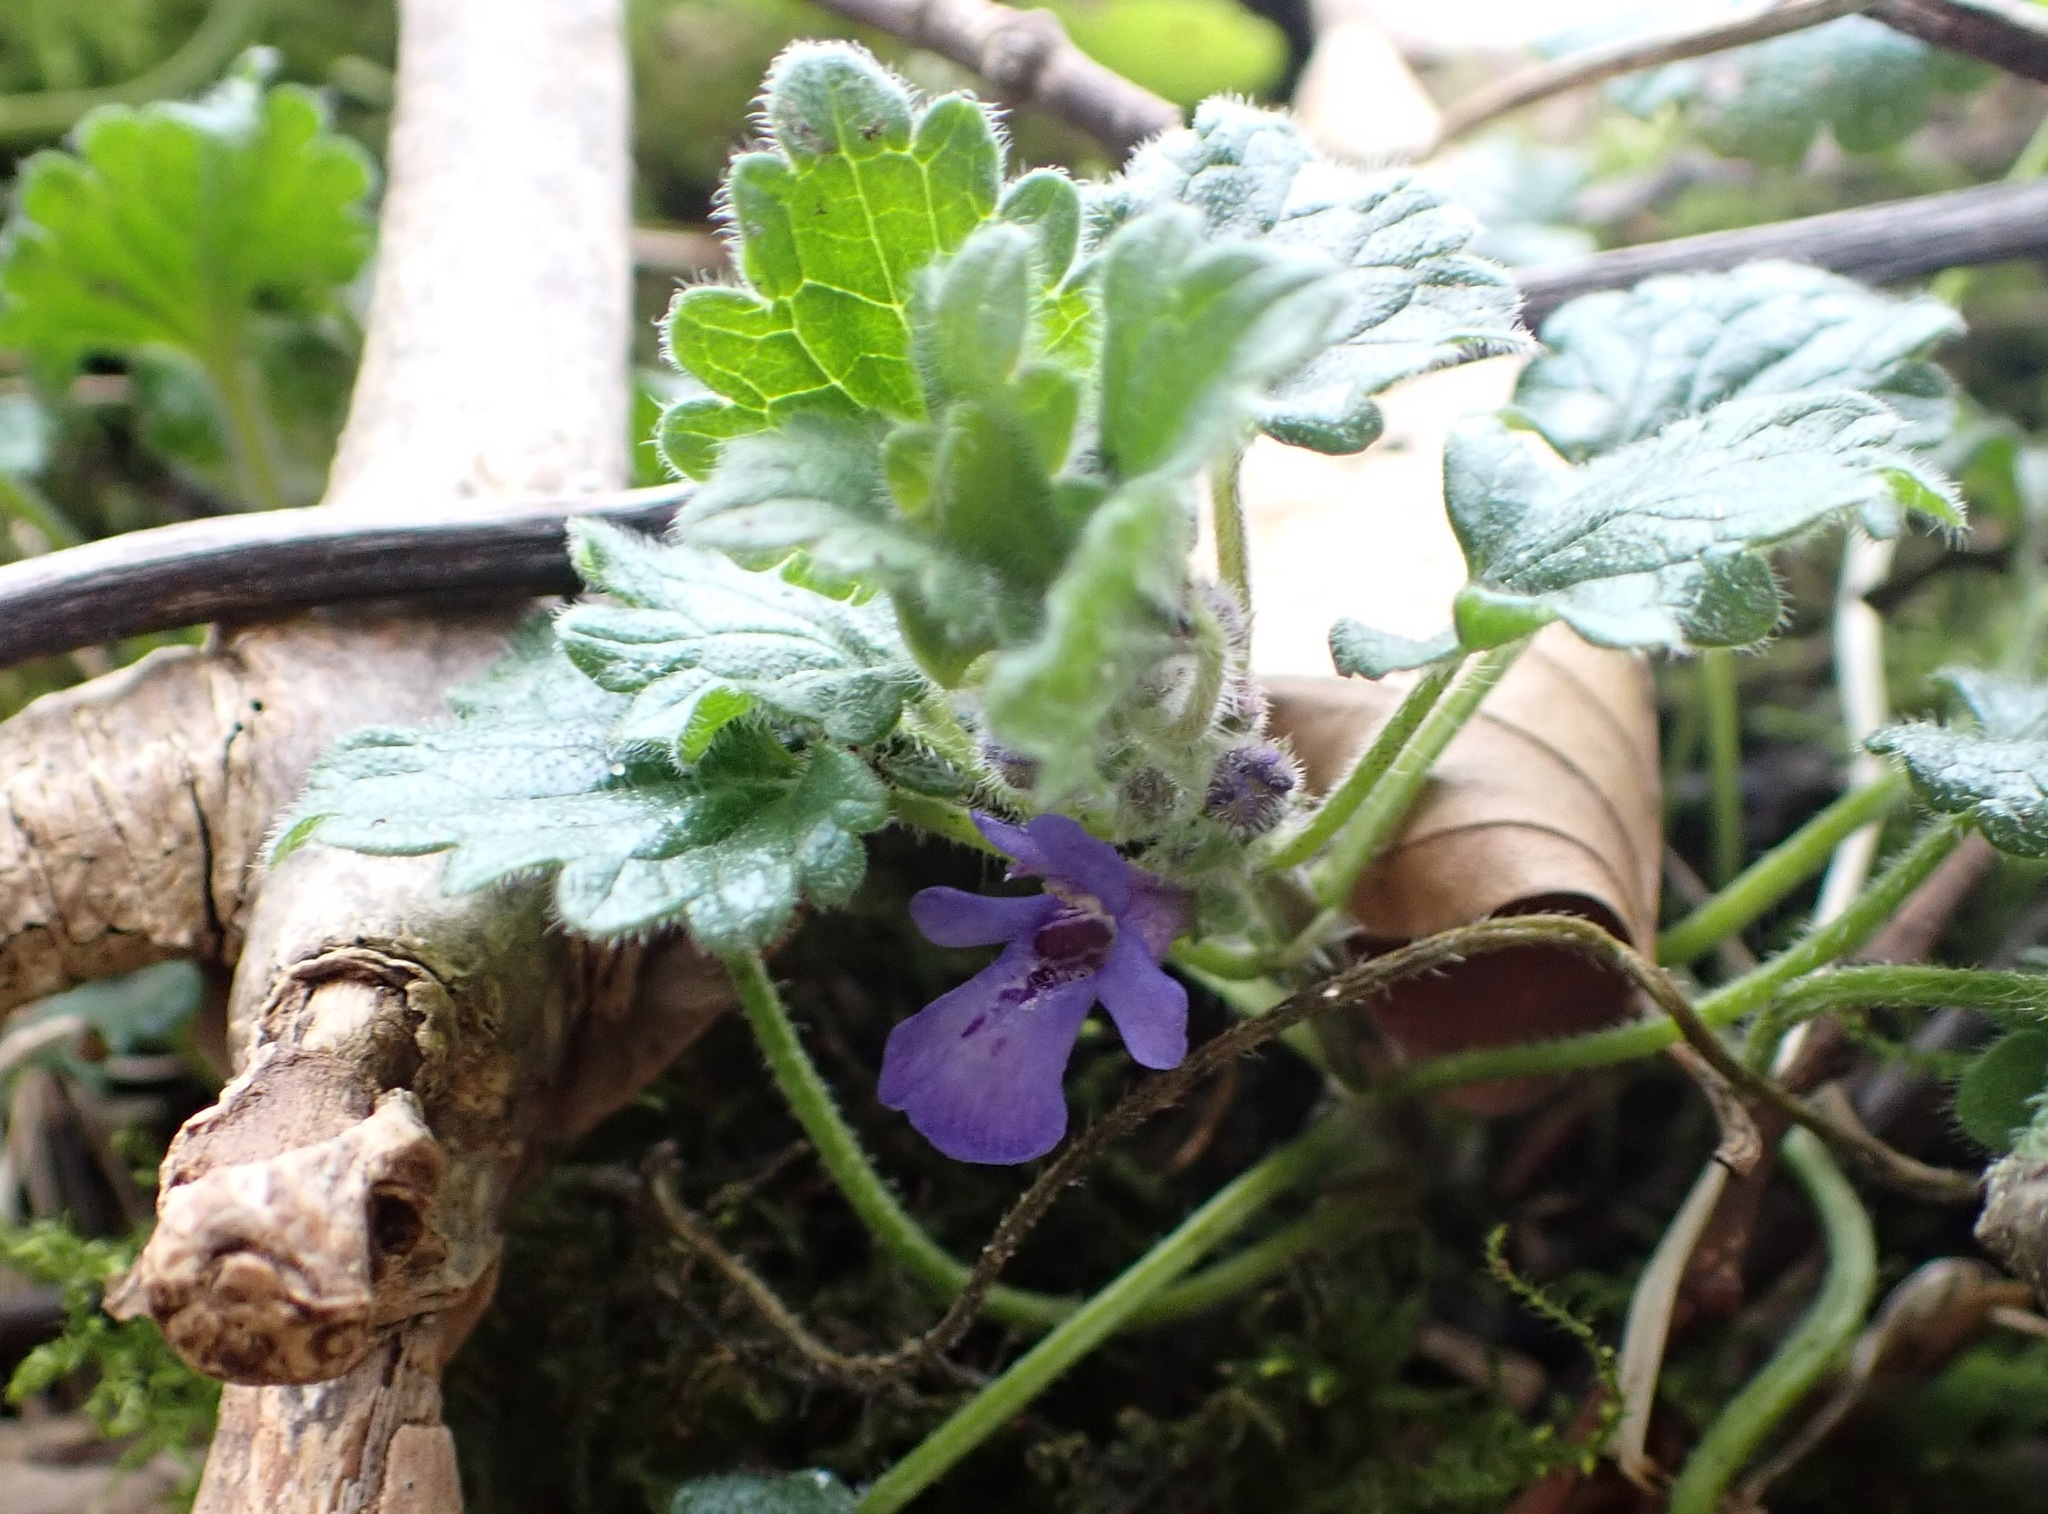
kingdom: Plantae
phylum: Tracheophyta
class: Magnoliopsida
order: Lamiales
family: Lamiaceae
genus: Glechoma
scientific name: Glechoma hederacea
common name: Ground ivy
